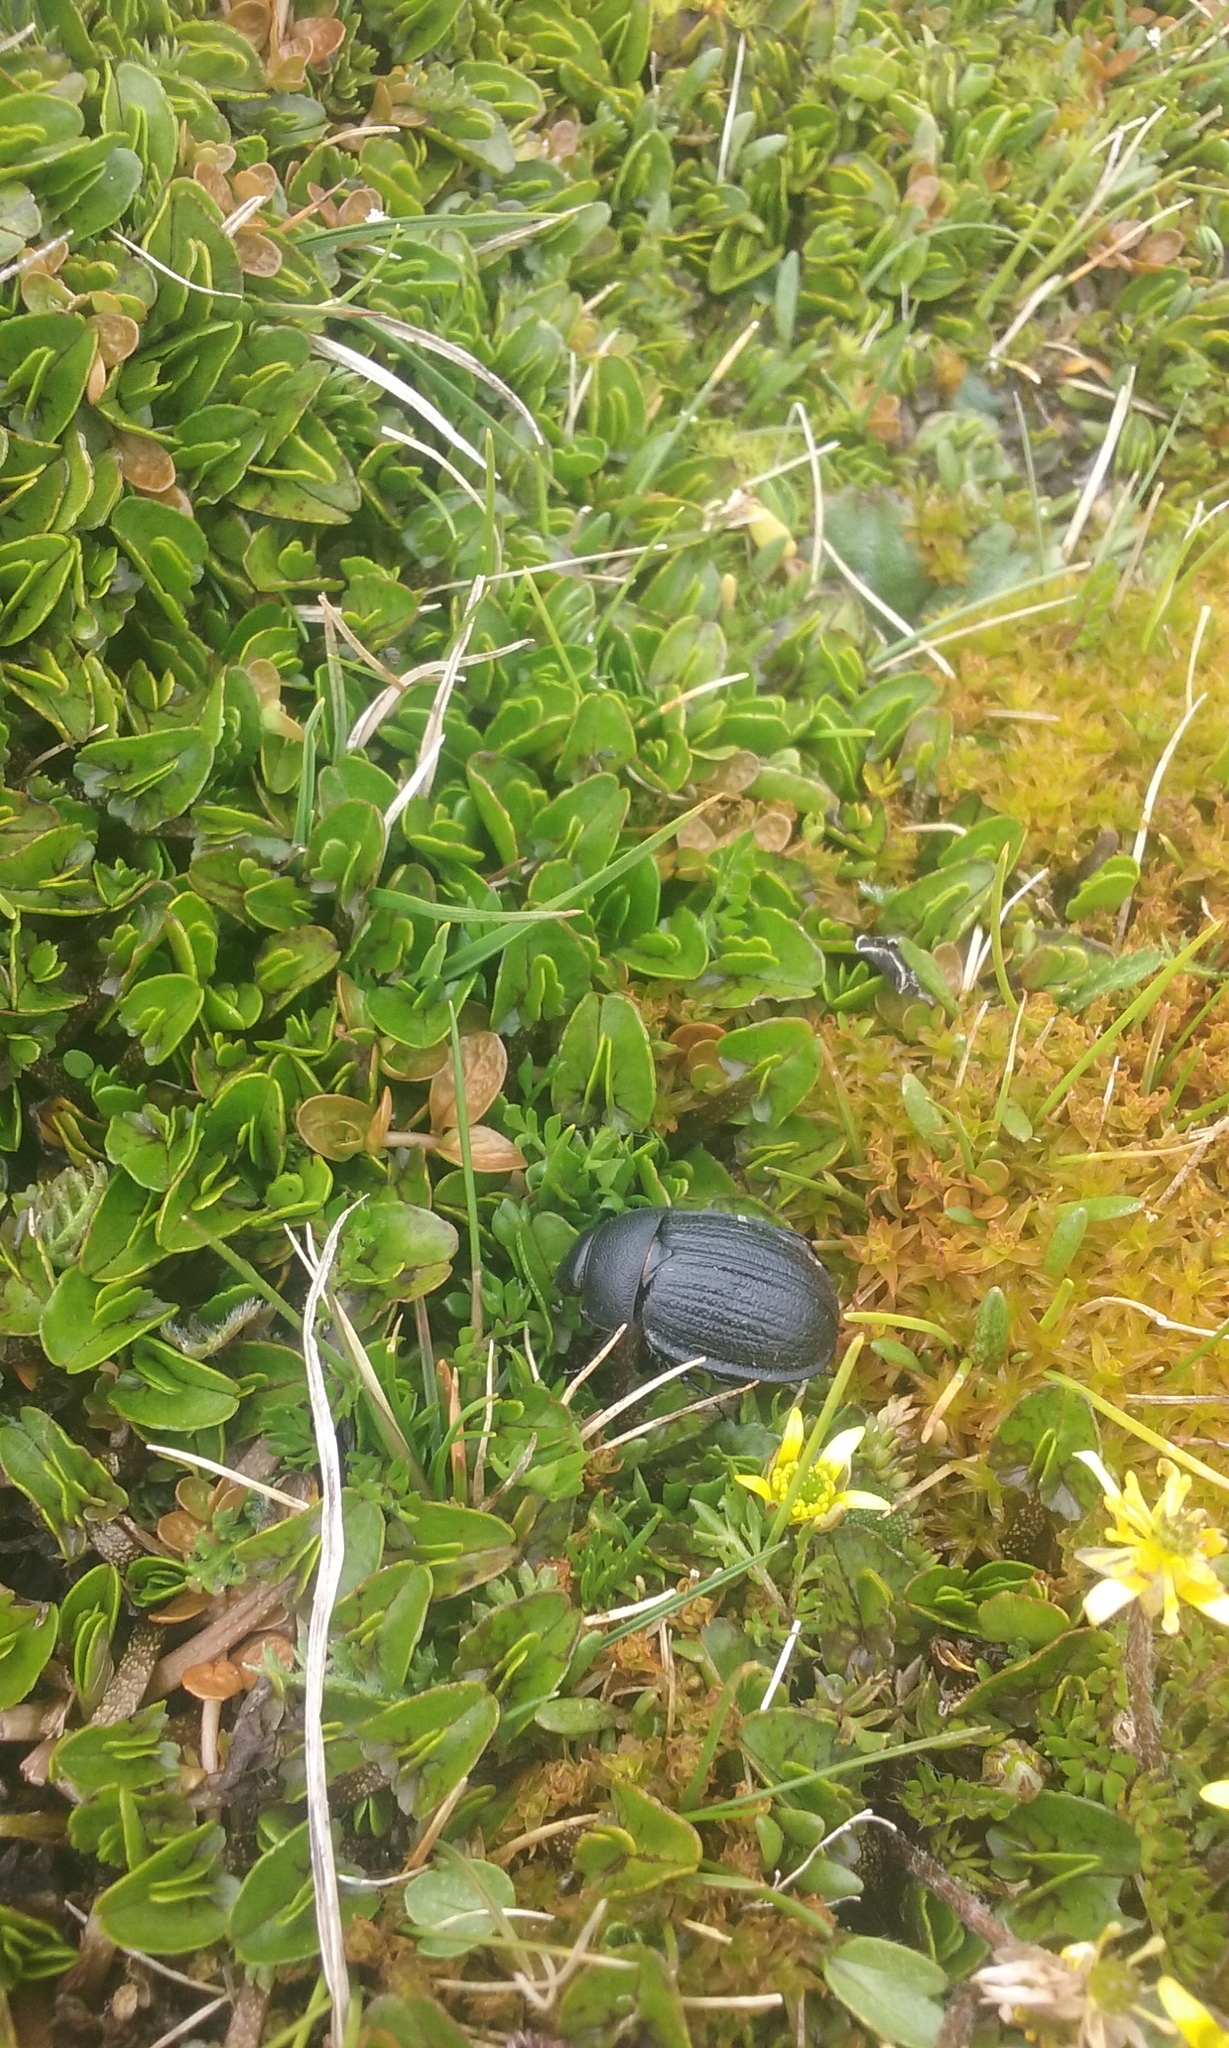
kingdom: Animalia
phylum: Arthropoda
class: Insecta
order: Coleoptera
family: Scarabaeidae
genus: Scythrodes
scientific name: Scythrodes squalidus
